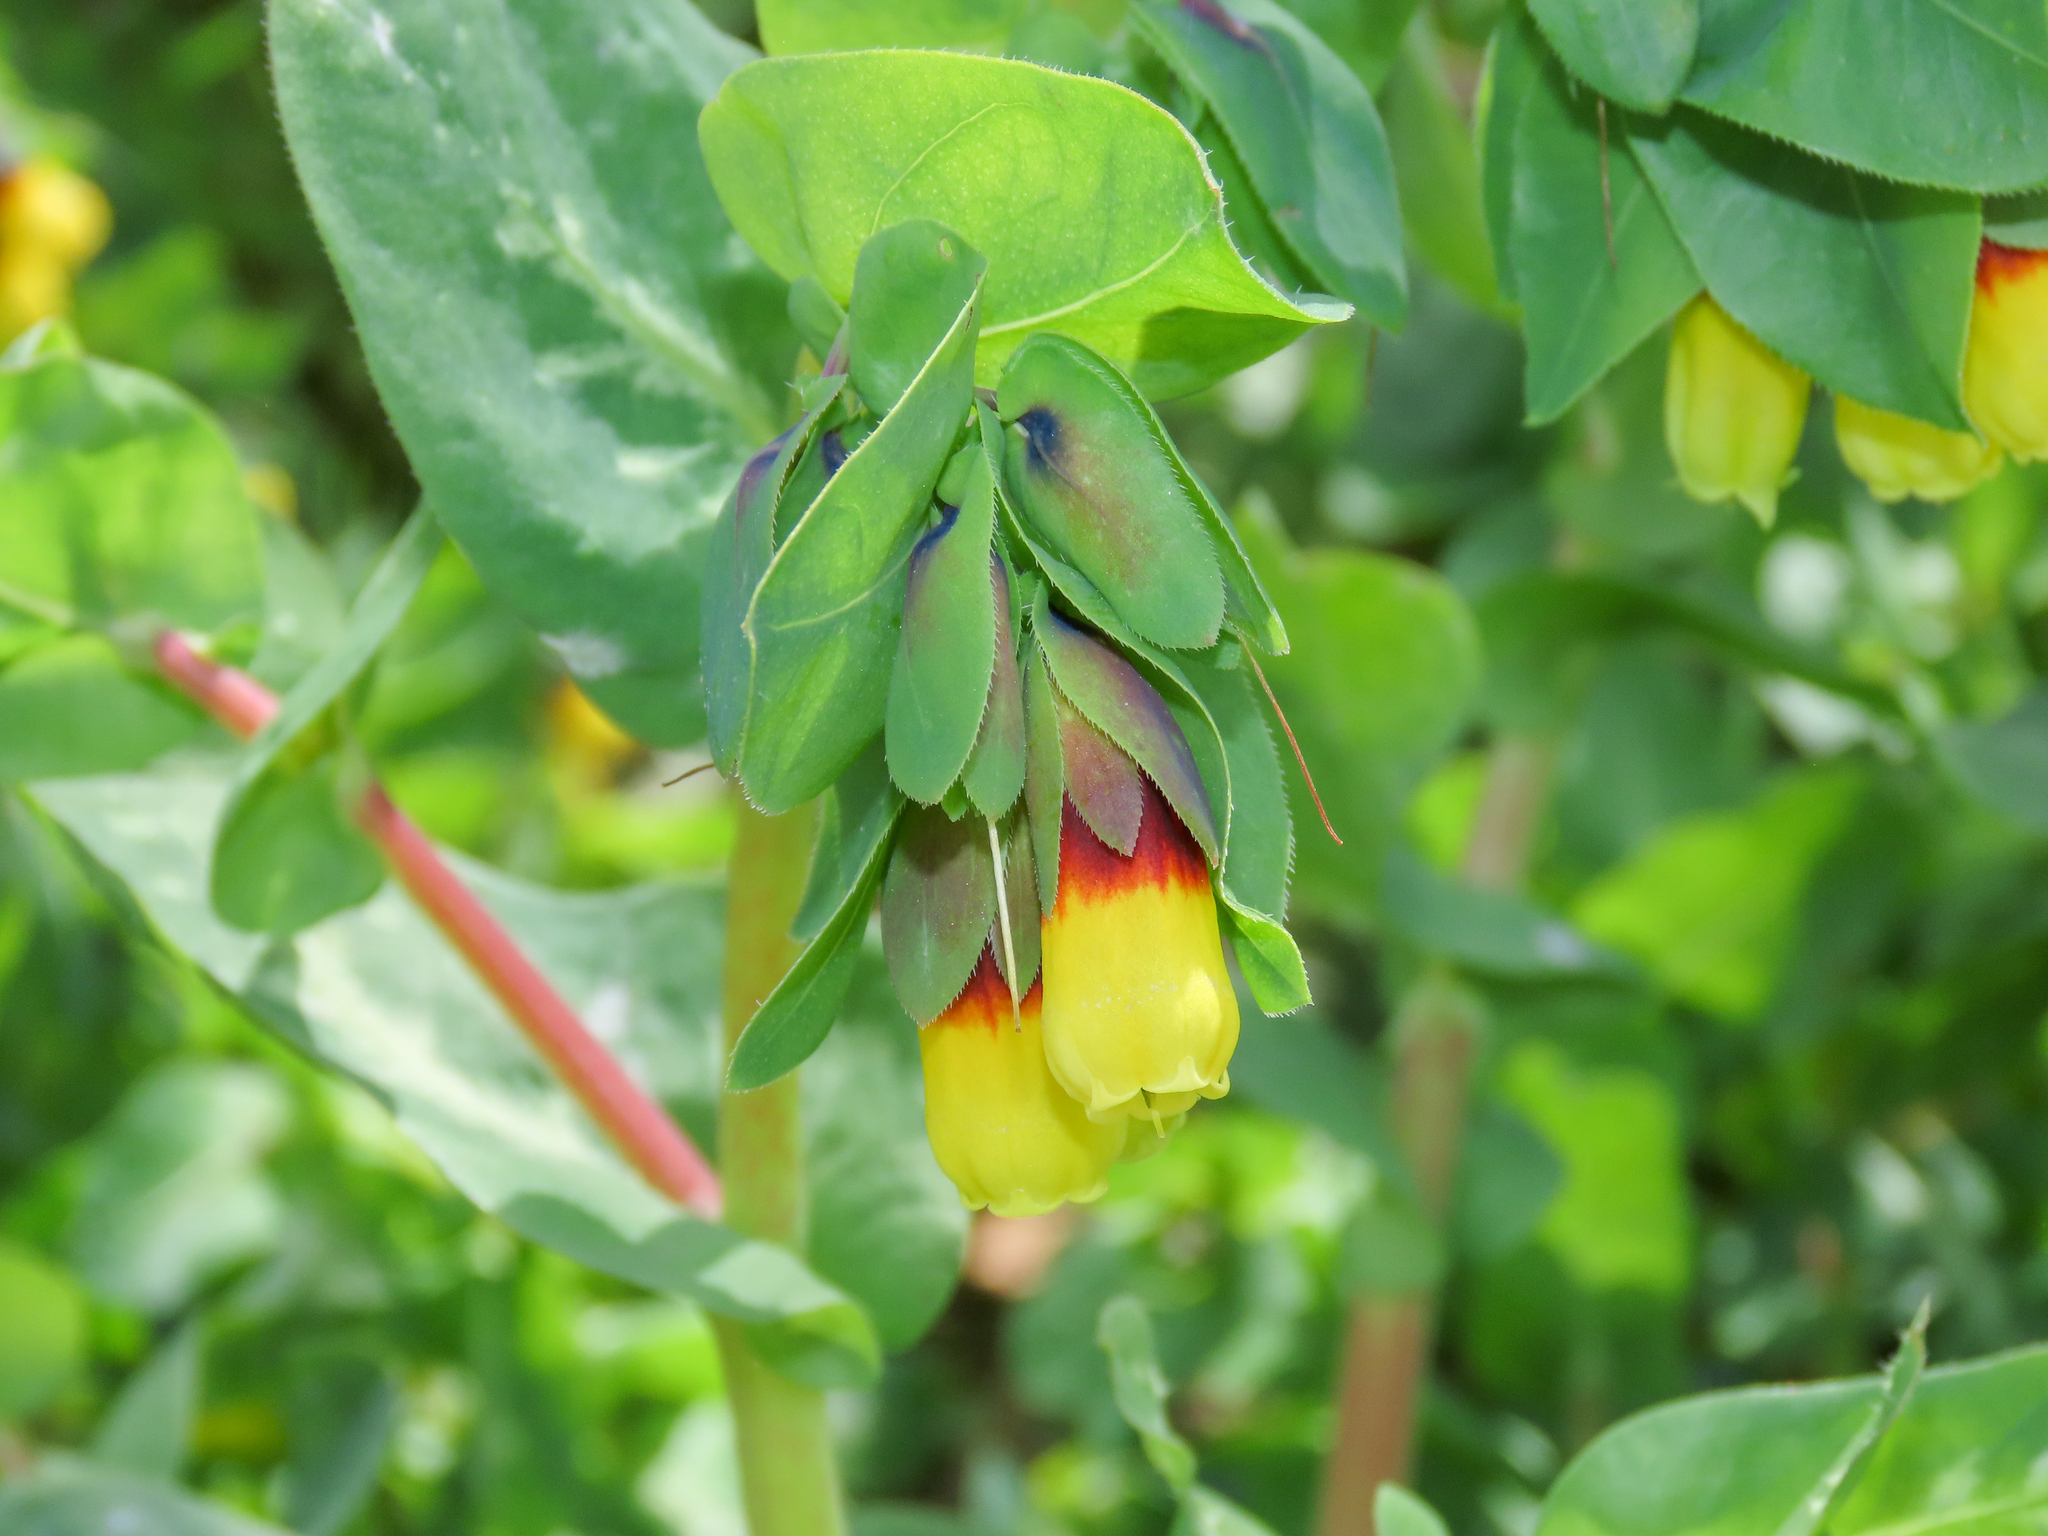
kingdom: Plantae
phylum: Tracheophyta
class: Magnoliopsida
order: Boraginales
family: Boraginaceae
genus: Cerinthe
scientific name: Cerinthe major
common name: Greater honeywort
